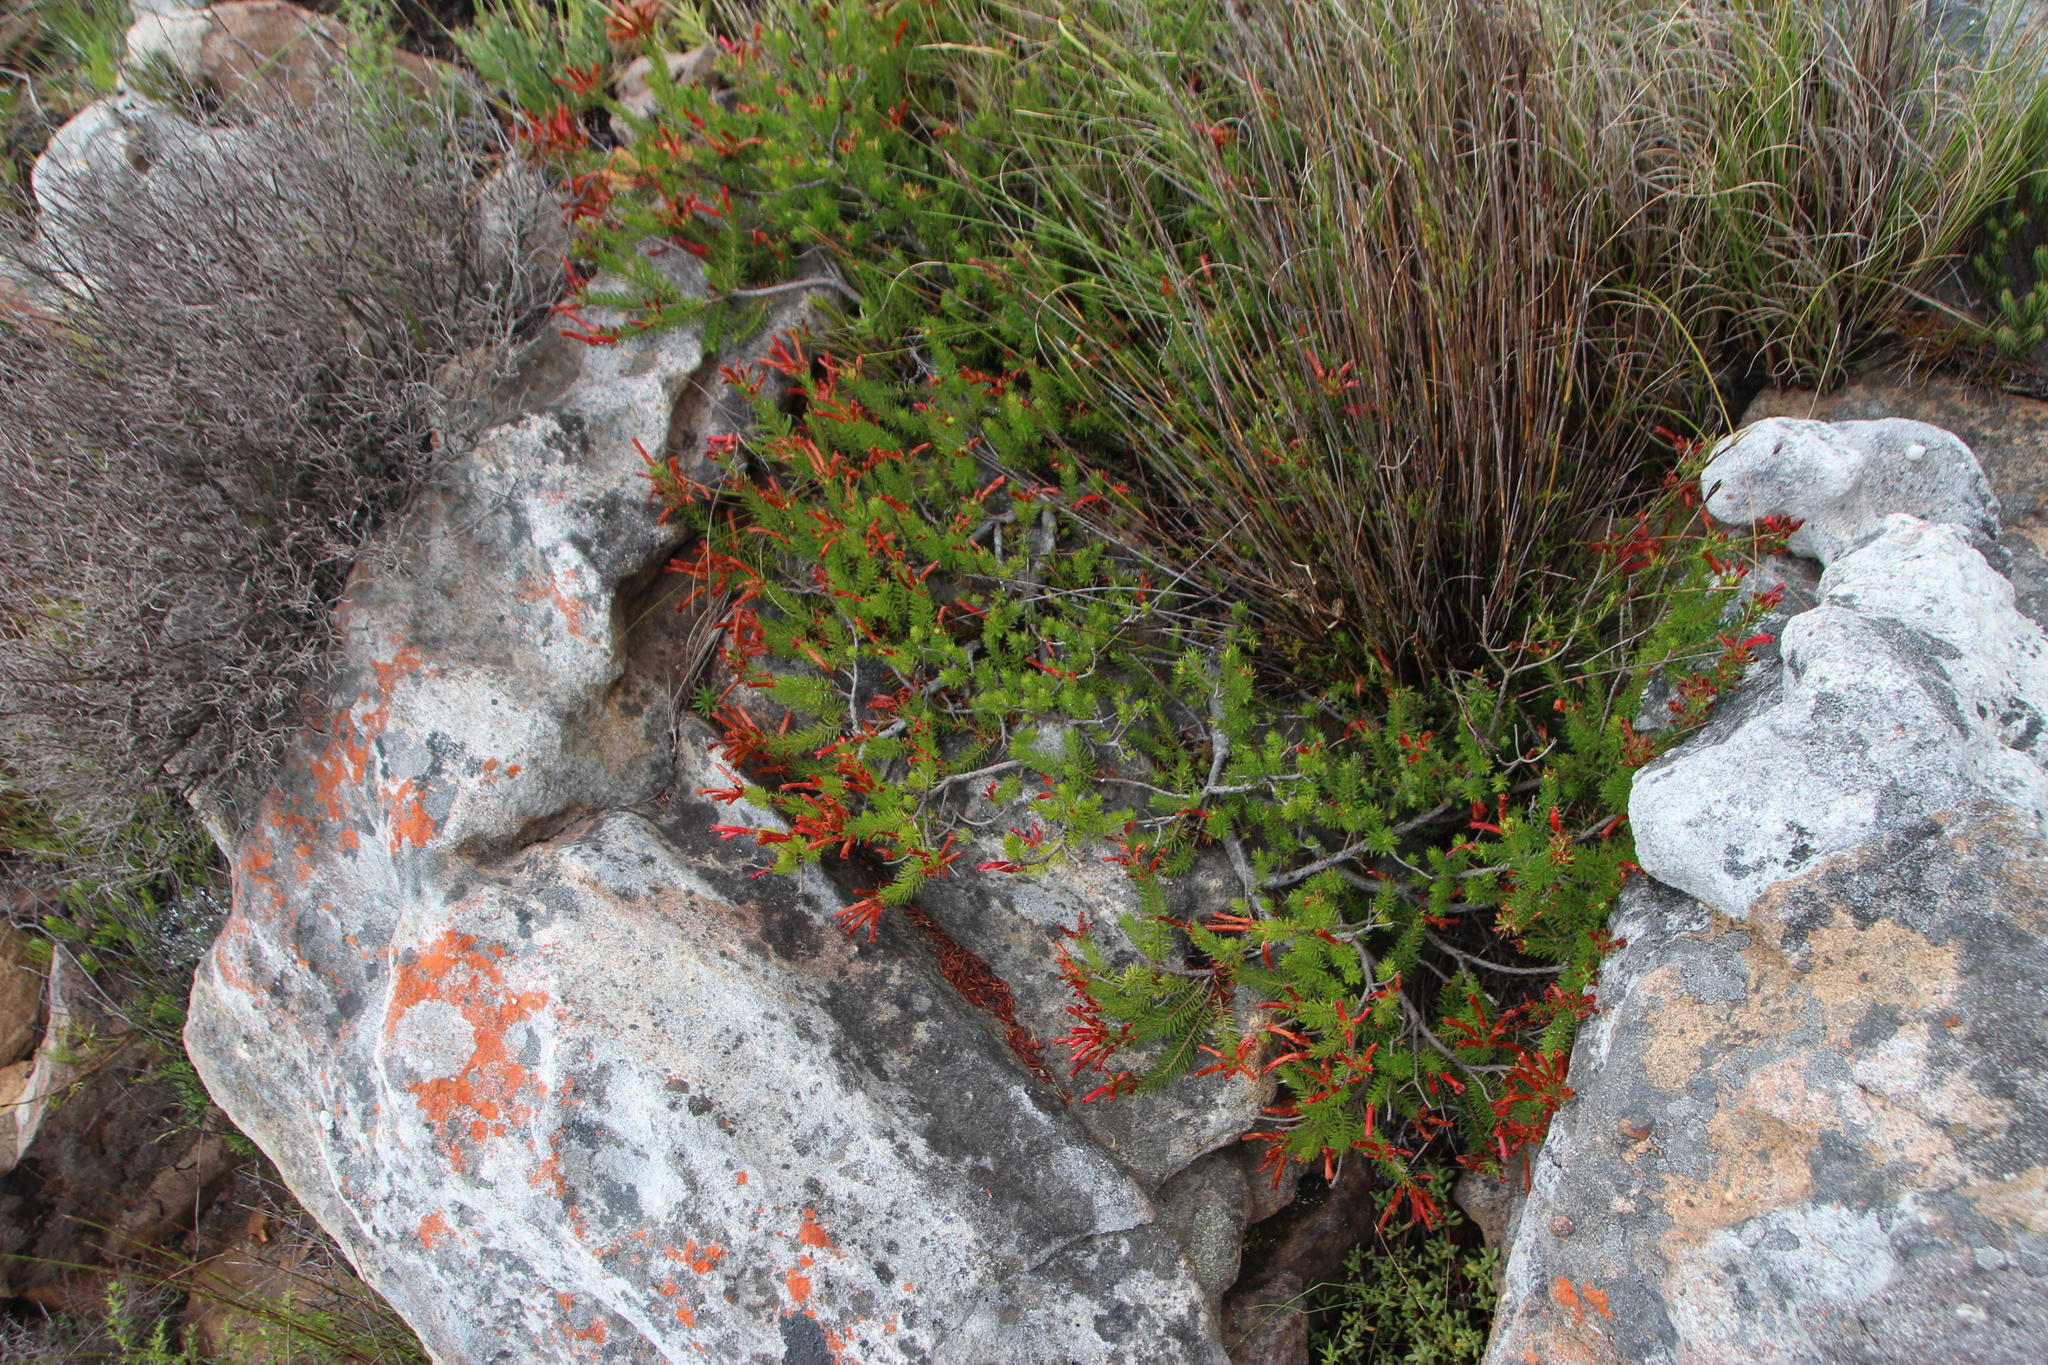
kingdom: Plantae
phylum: Tracheophyta
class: Magnoliopsida
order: Ericales
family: Ericaceae
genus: Erica
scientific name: Erica nevillei
